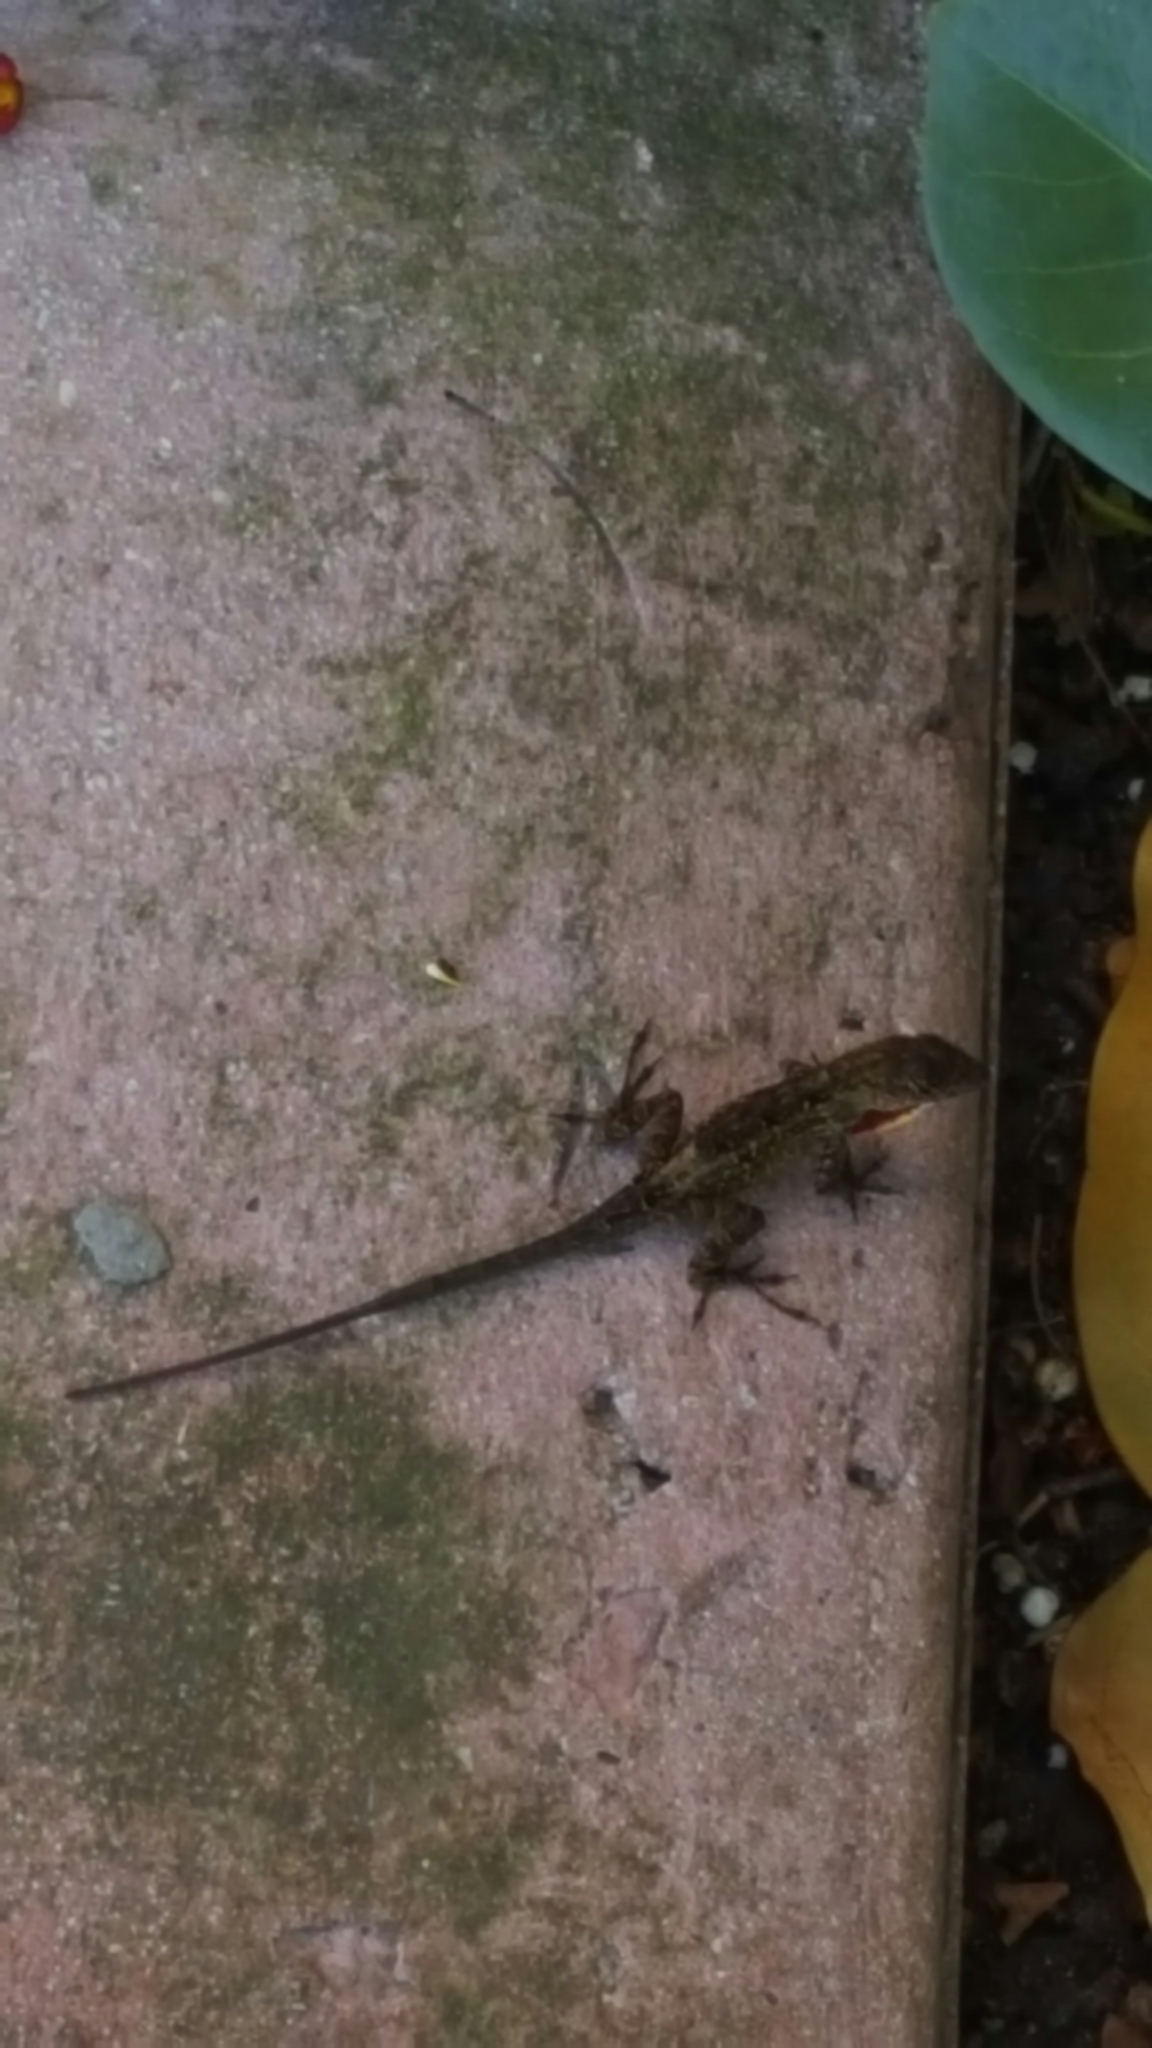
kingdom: Animalia
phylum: Chordata
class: Squamata
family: Dactyloidae
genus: Anolis
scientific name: Anolis sagrei
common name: Brown anole
